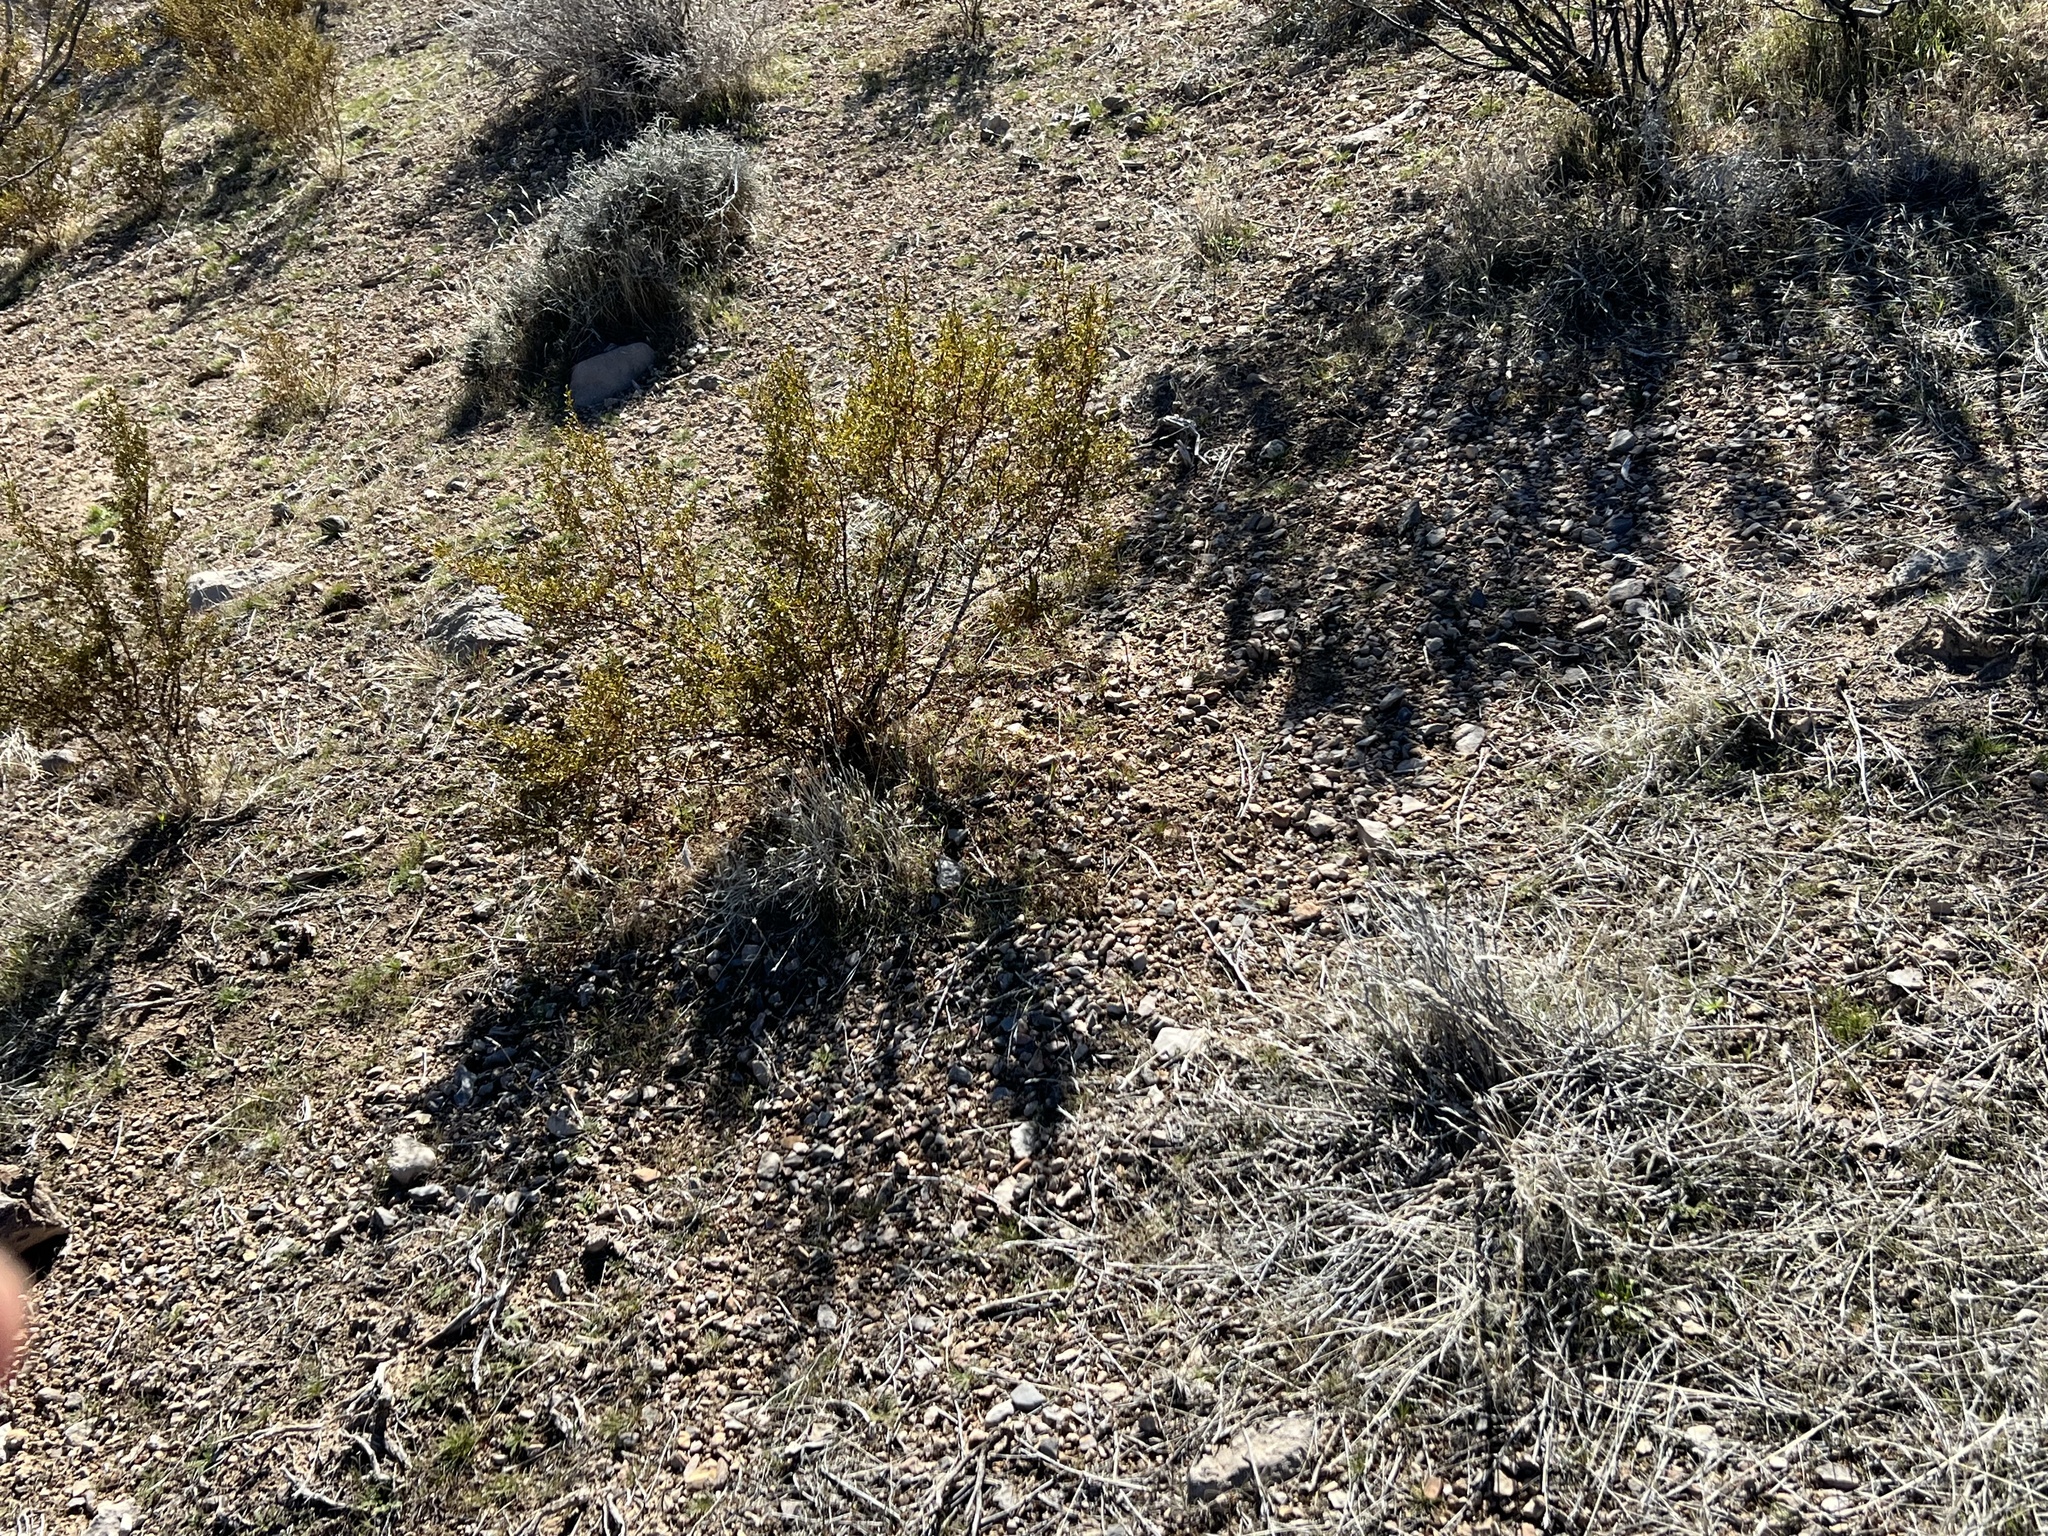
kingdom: Plantae
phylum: Tracheophyta
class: Magnoliopsida
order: Zygophyllales
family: Zygophyllaceae
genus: Larrea
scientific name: Larrea tridentata
